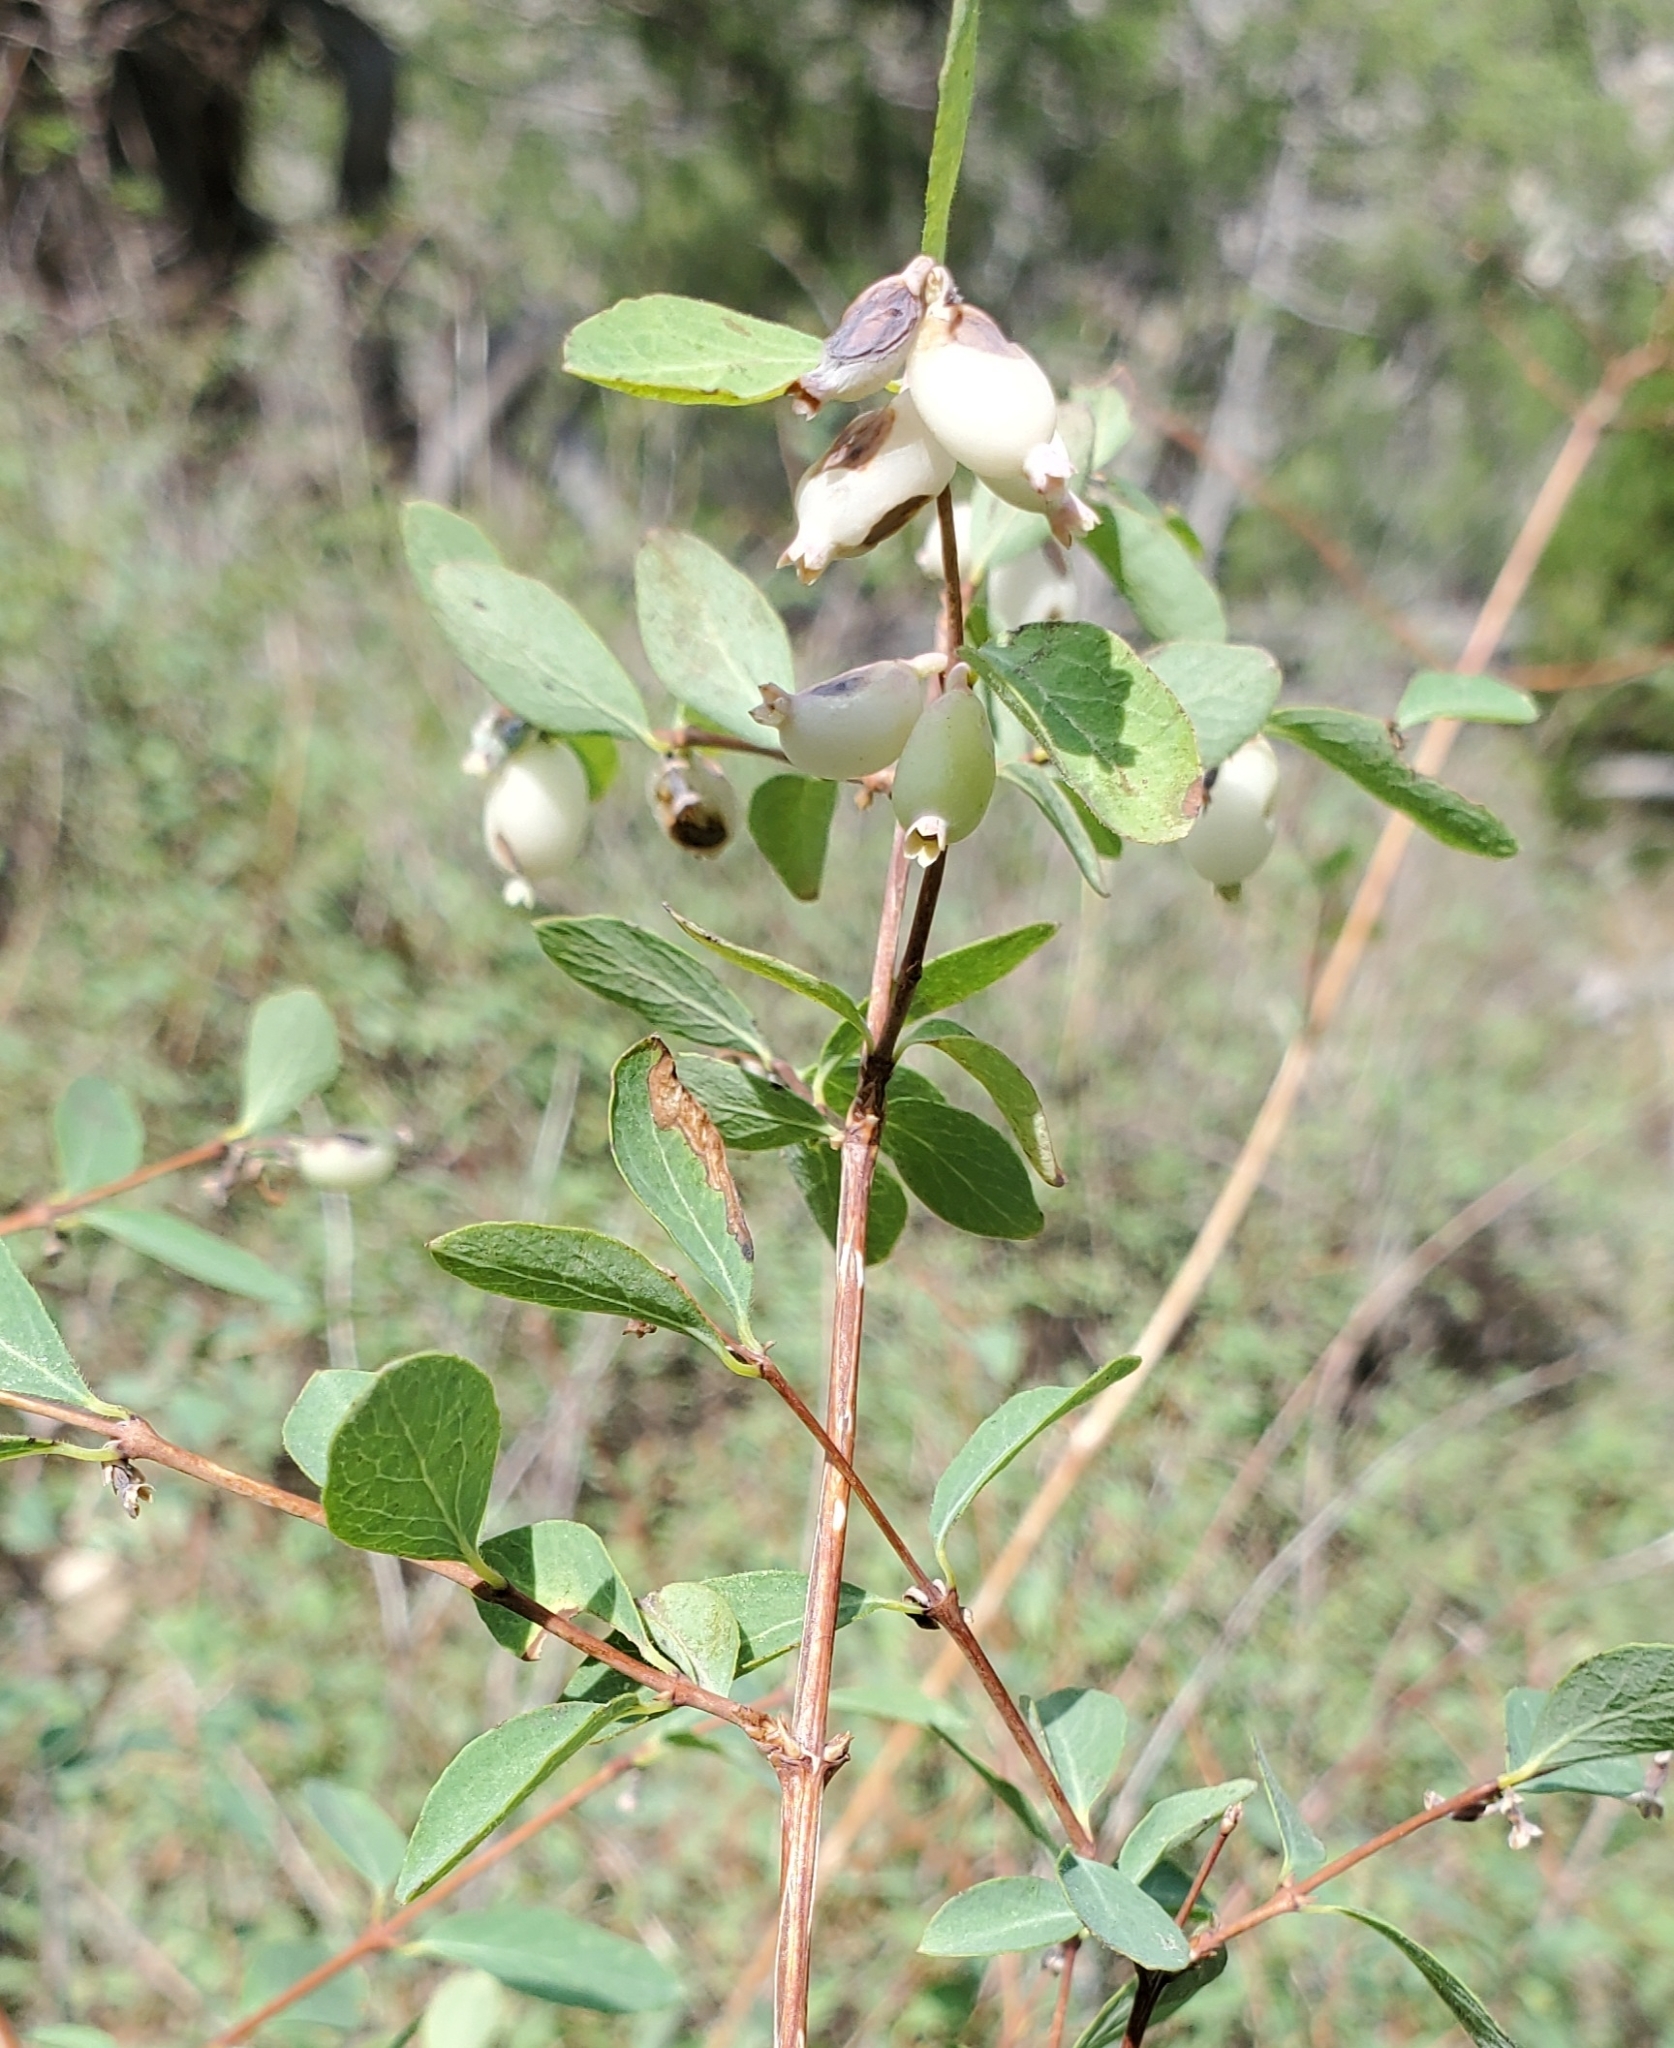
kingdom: Plantae
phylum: Tracheophyta
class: Magnoliopsida
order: Dipsacales
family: Caprifoliaceae
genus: Symphoricarpos
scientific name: Symphoricarpos rotundifolius
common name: Round-leaved snowberry
